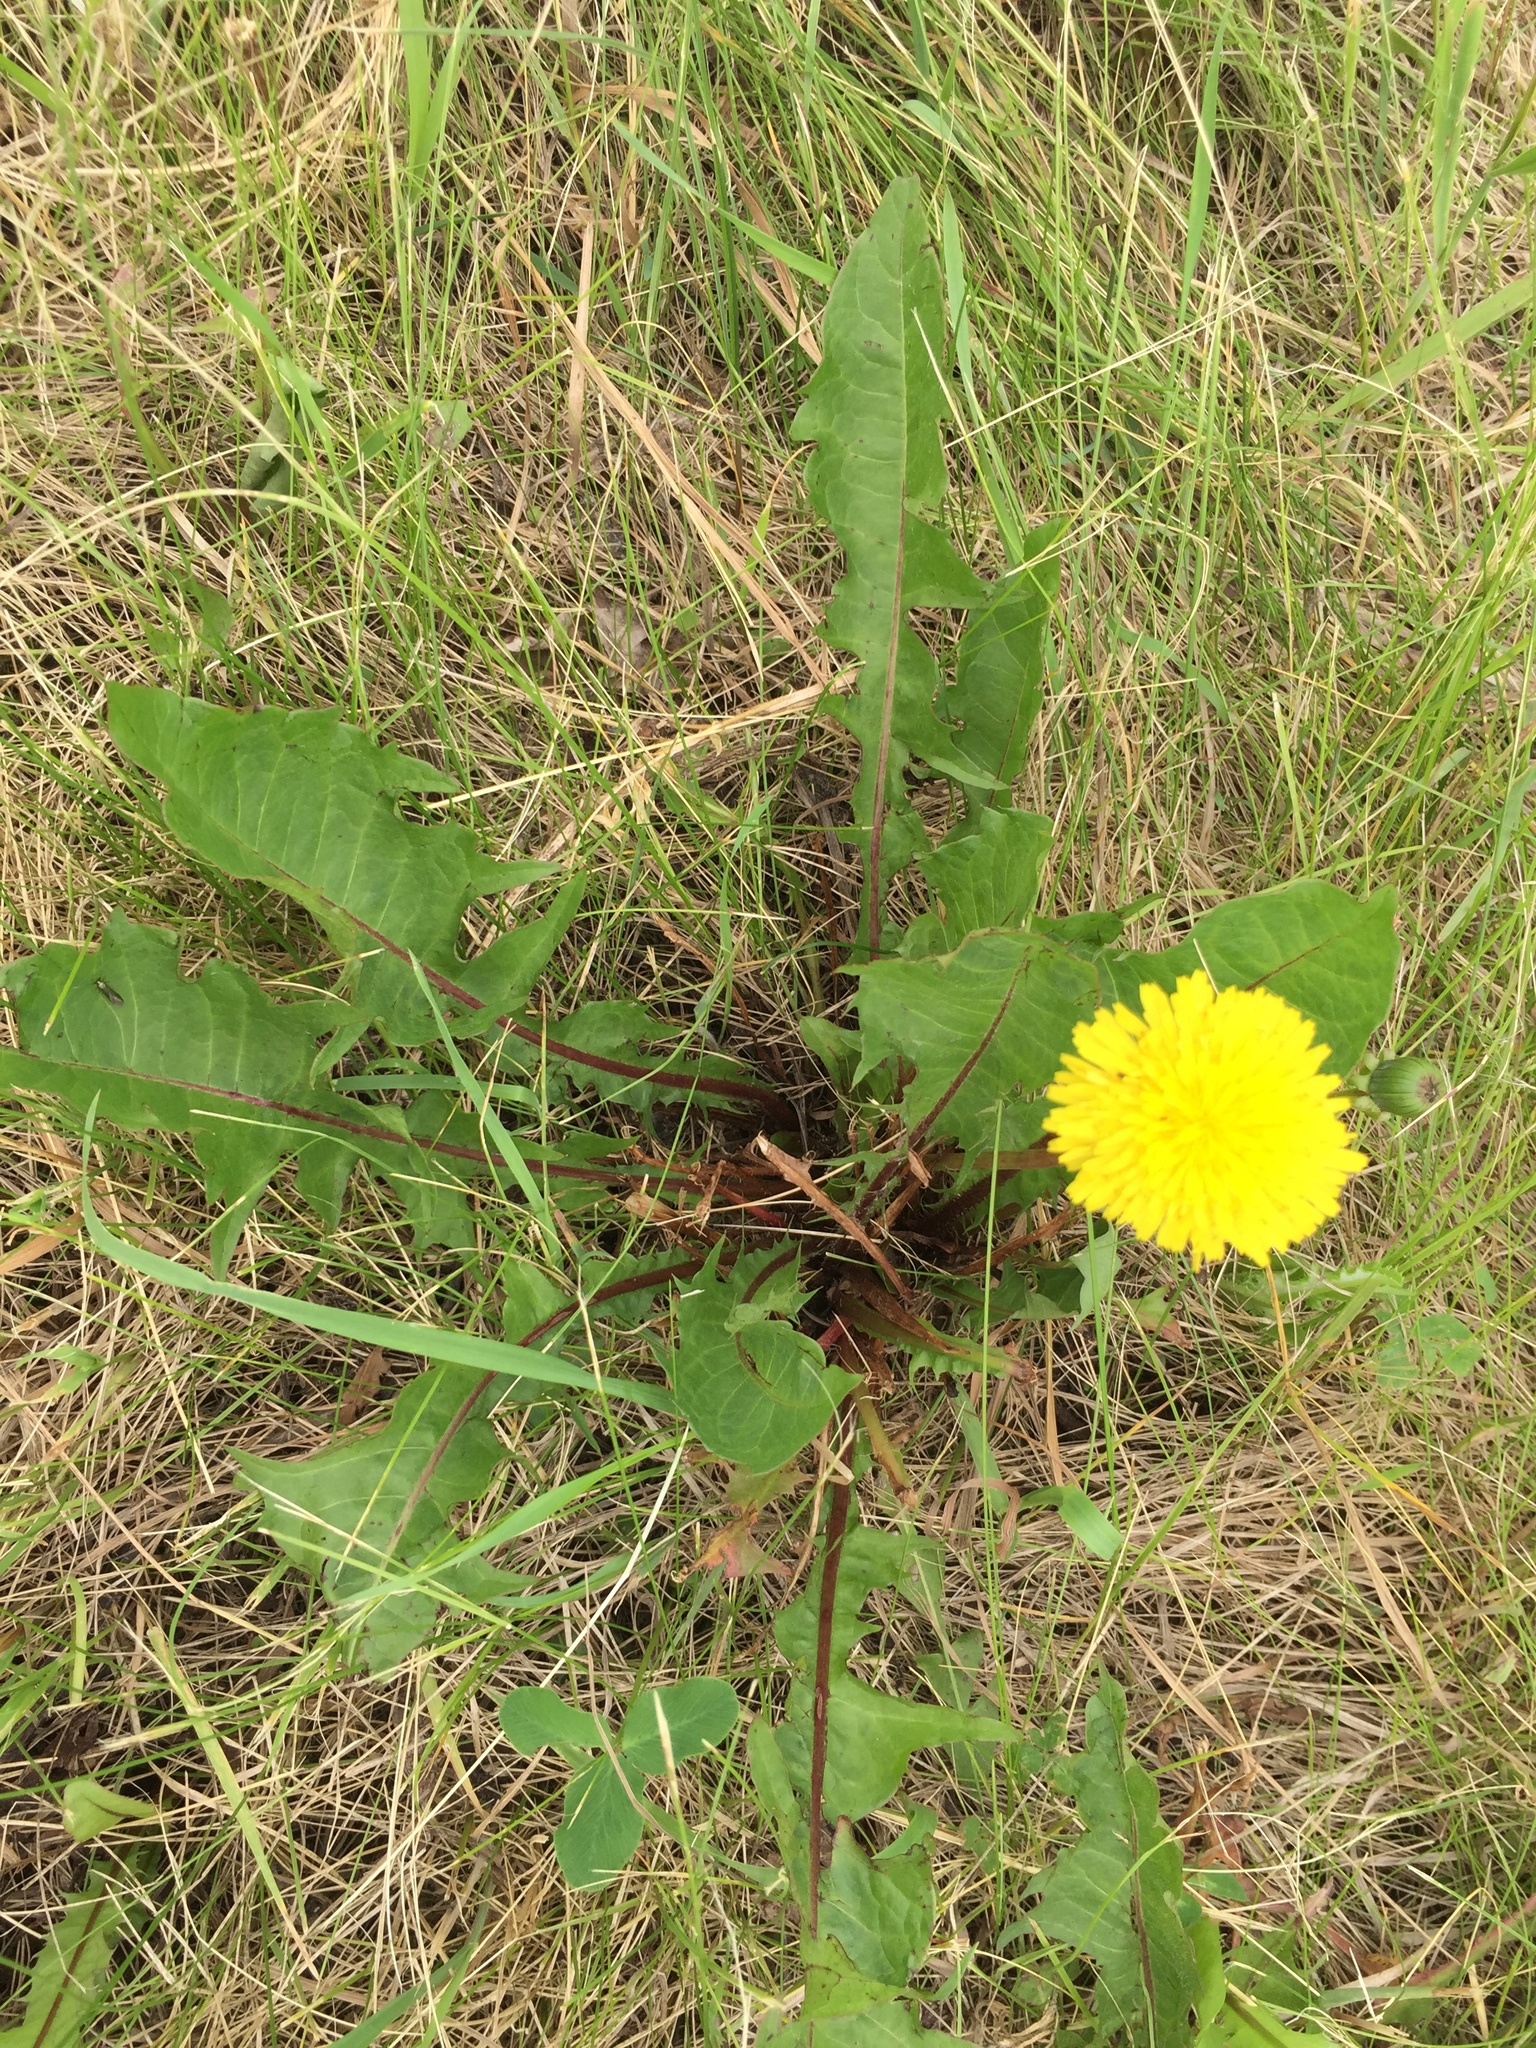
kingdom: Plantae
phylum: Tracheophyta
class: Magnoliopsida
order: Asterales
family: Asteraceae
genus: Taraxacum
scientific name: Taraxacum officinale
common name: Common dandelion
